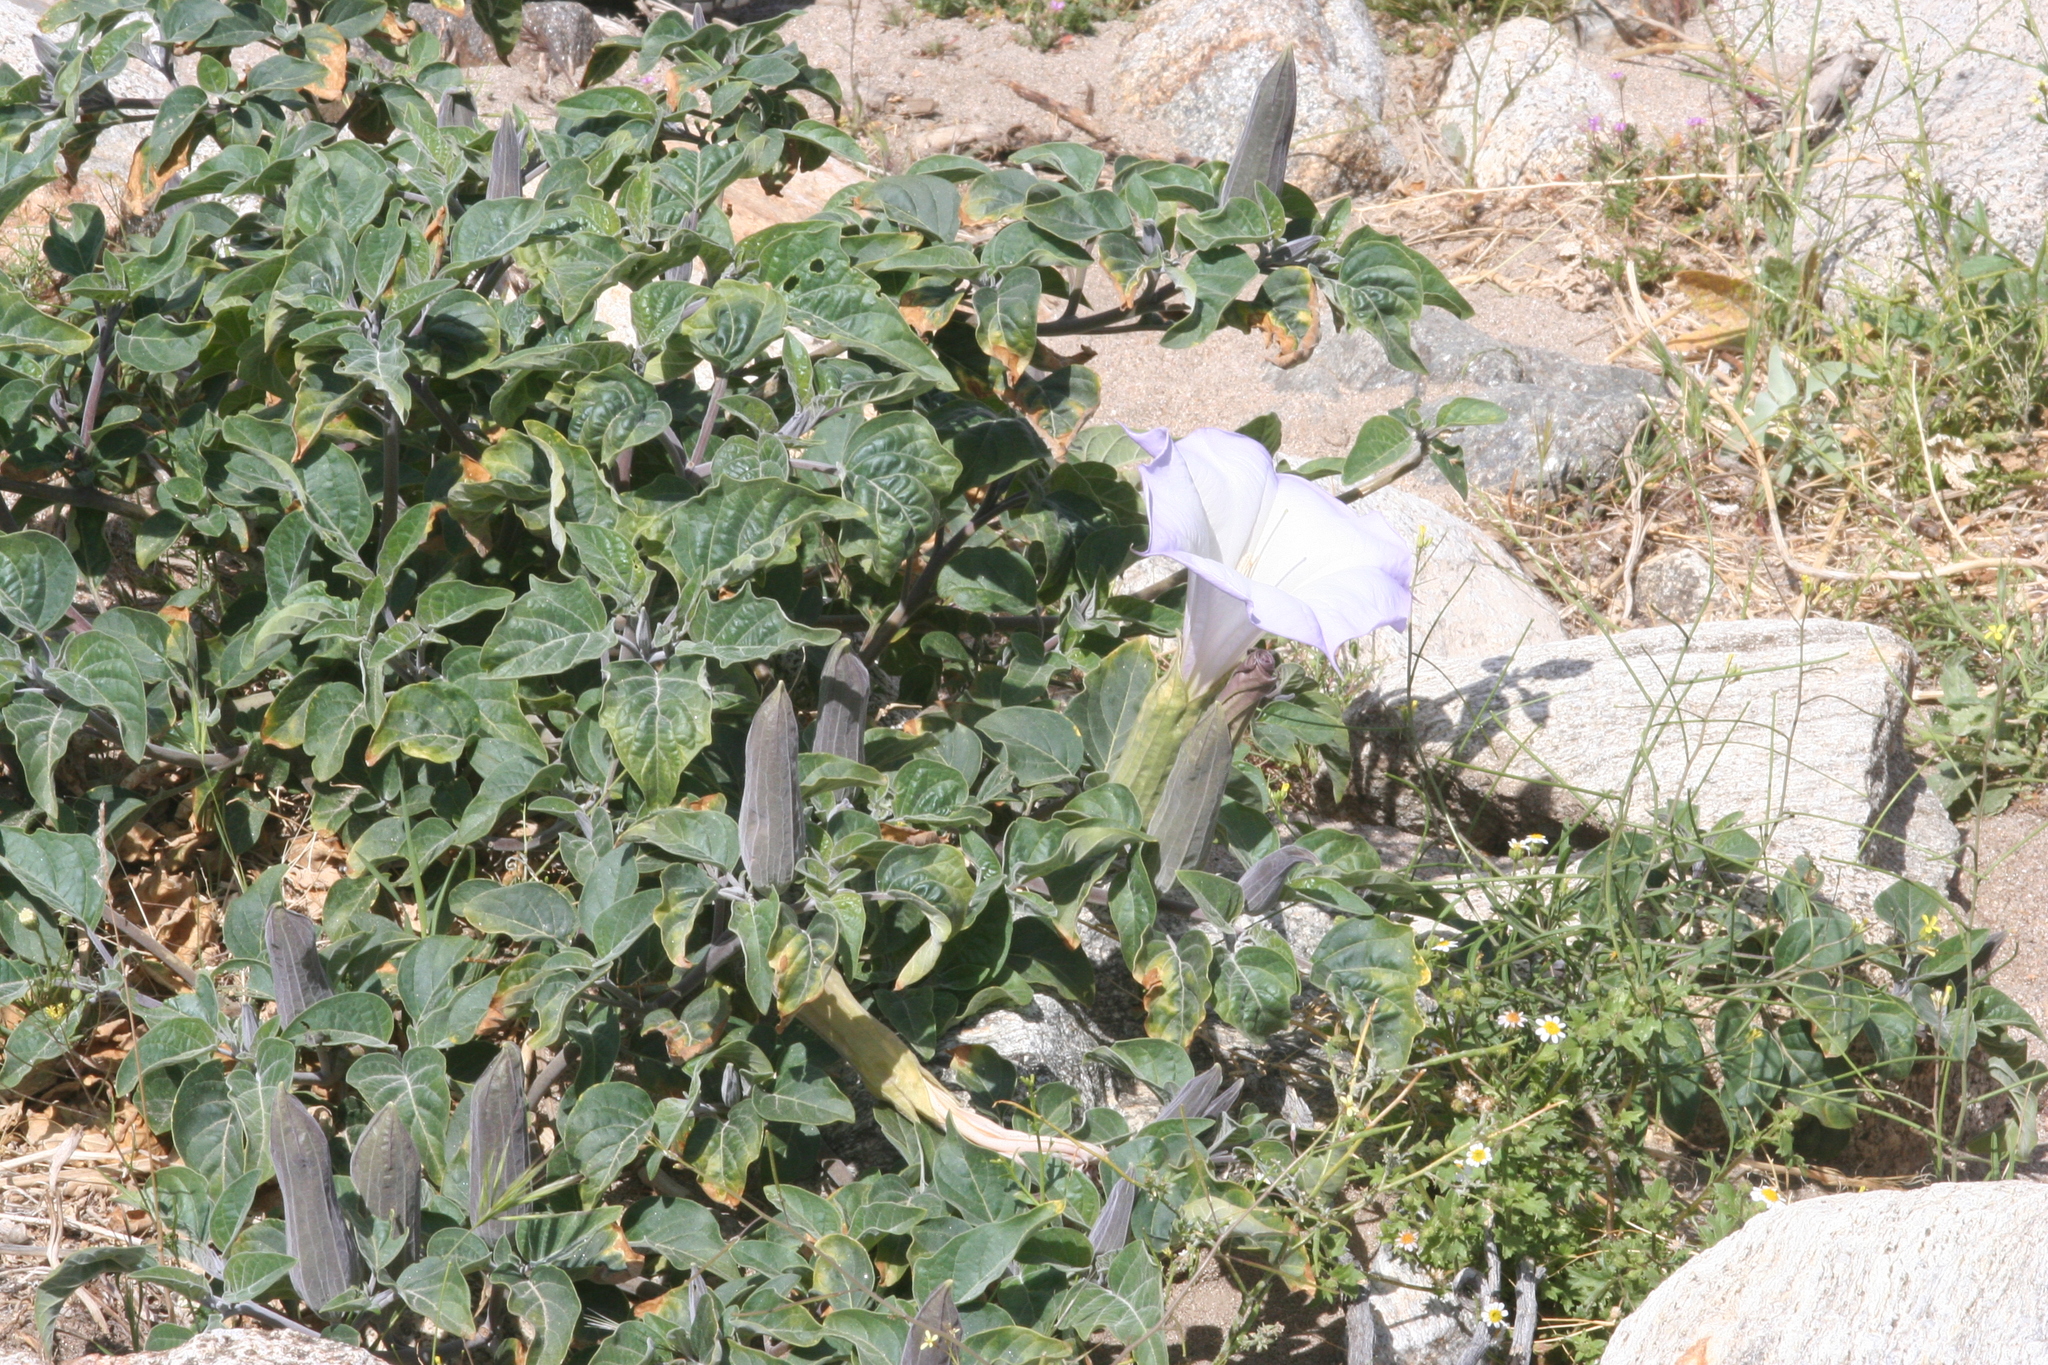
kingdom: Plantae
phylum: Tracheophyta
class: Magnoliopsida
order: Solanales
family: Solanaceae
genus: Datura
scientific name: Datura wrightii
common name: Sacred thorn-apple
